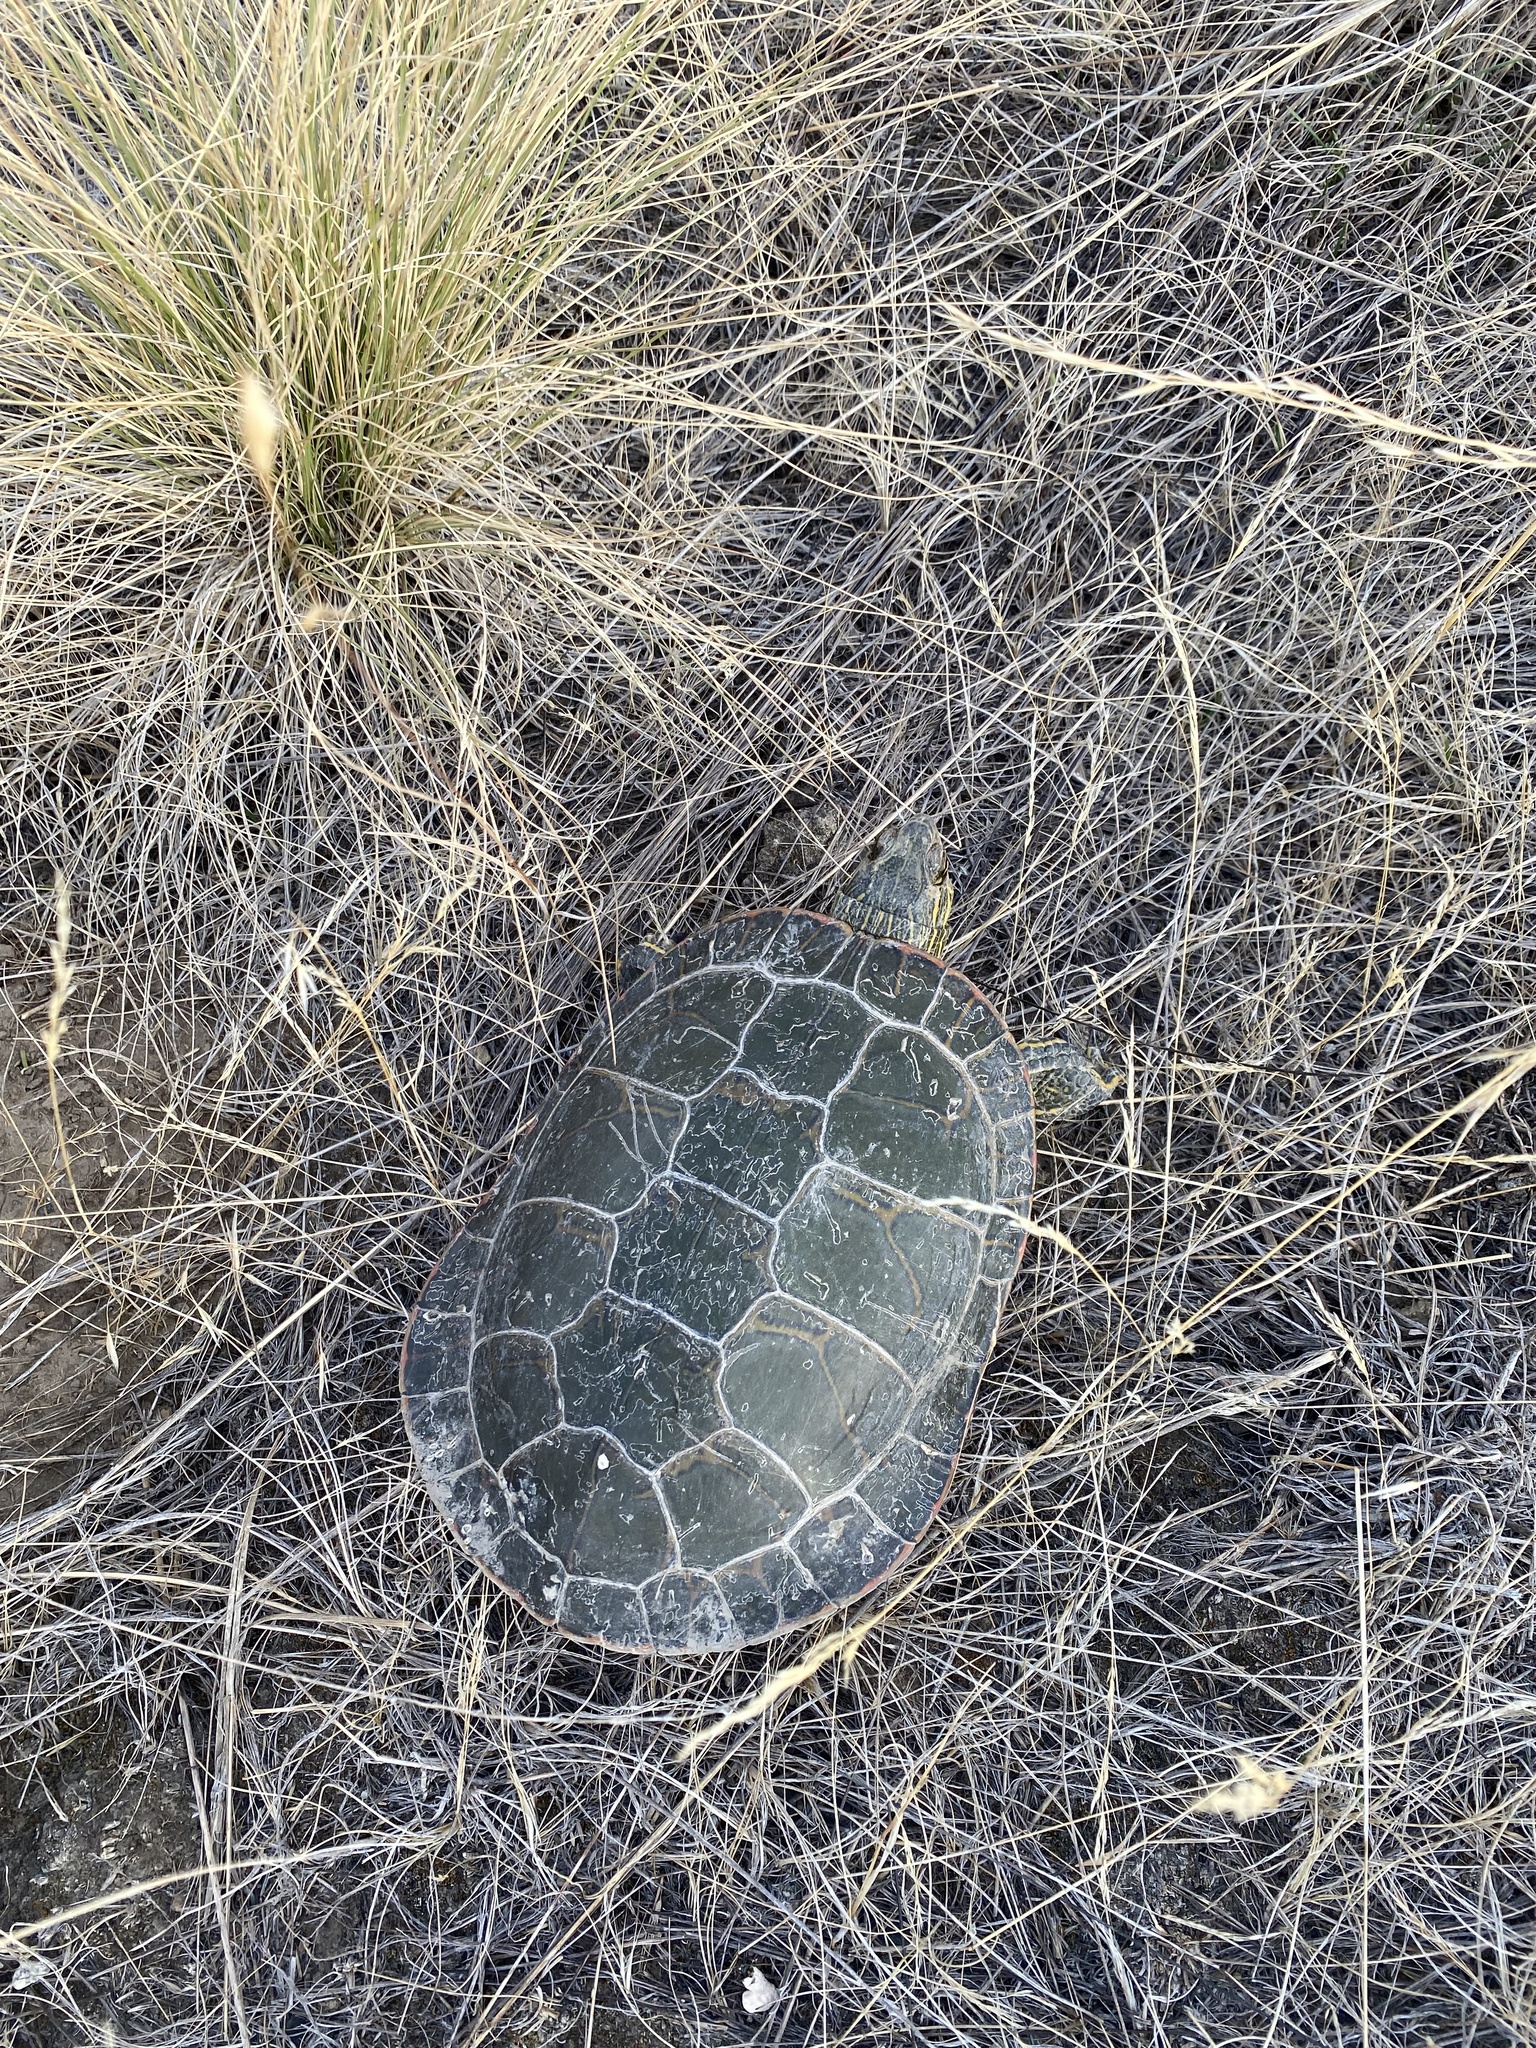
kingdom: Animalia
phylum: Chordata
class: Testudines
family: Emydidae
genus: Chrysemys
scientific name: Chrysemys picta
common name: Painted turtle
